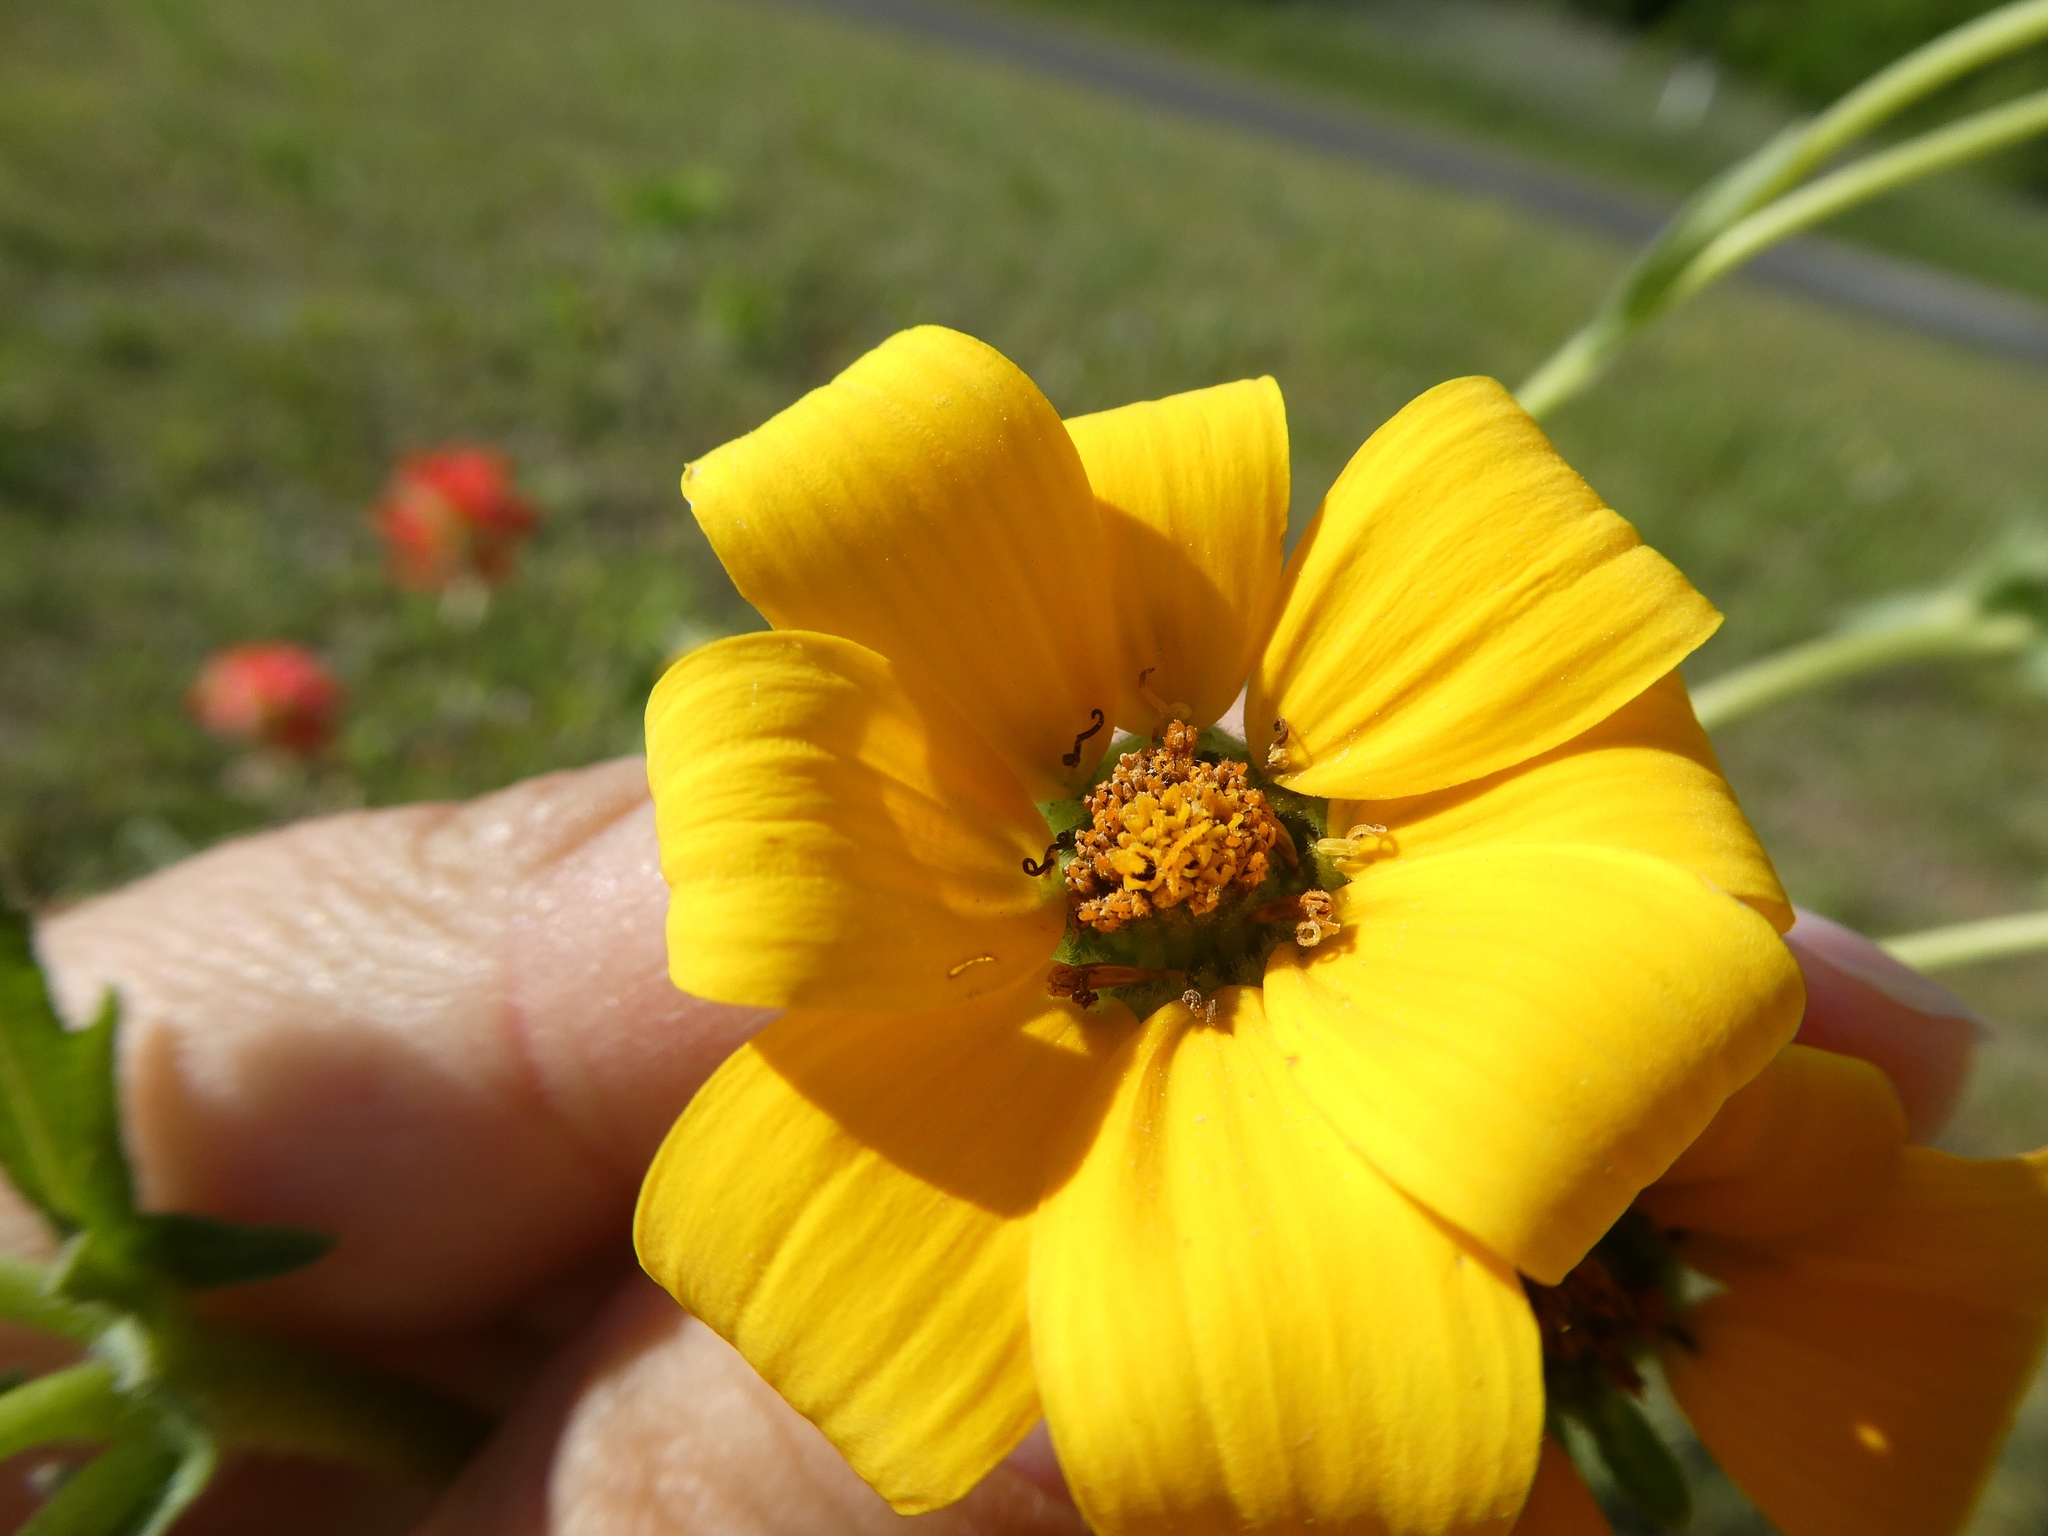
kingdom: Plantae
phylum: Tracheophyta
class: Magnoliopsida
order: Asterales
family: Asteraceae
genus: Engelmannia
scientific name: Engelmannia peristenia
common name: Engelmann's daisy
